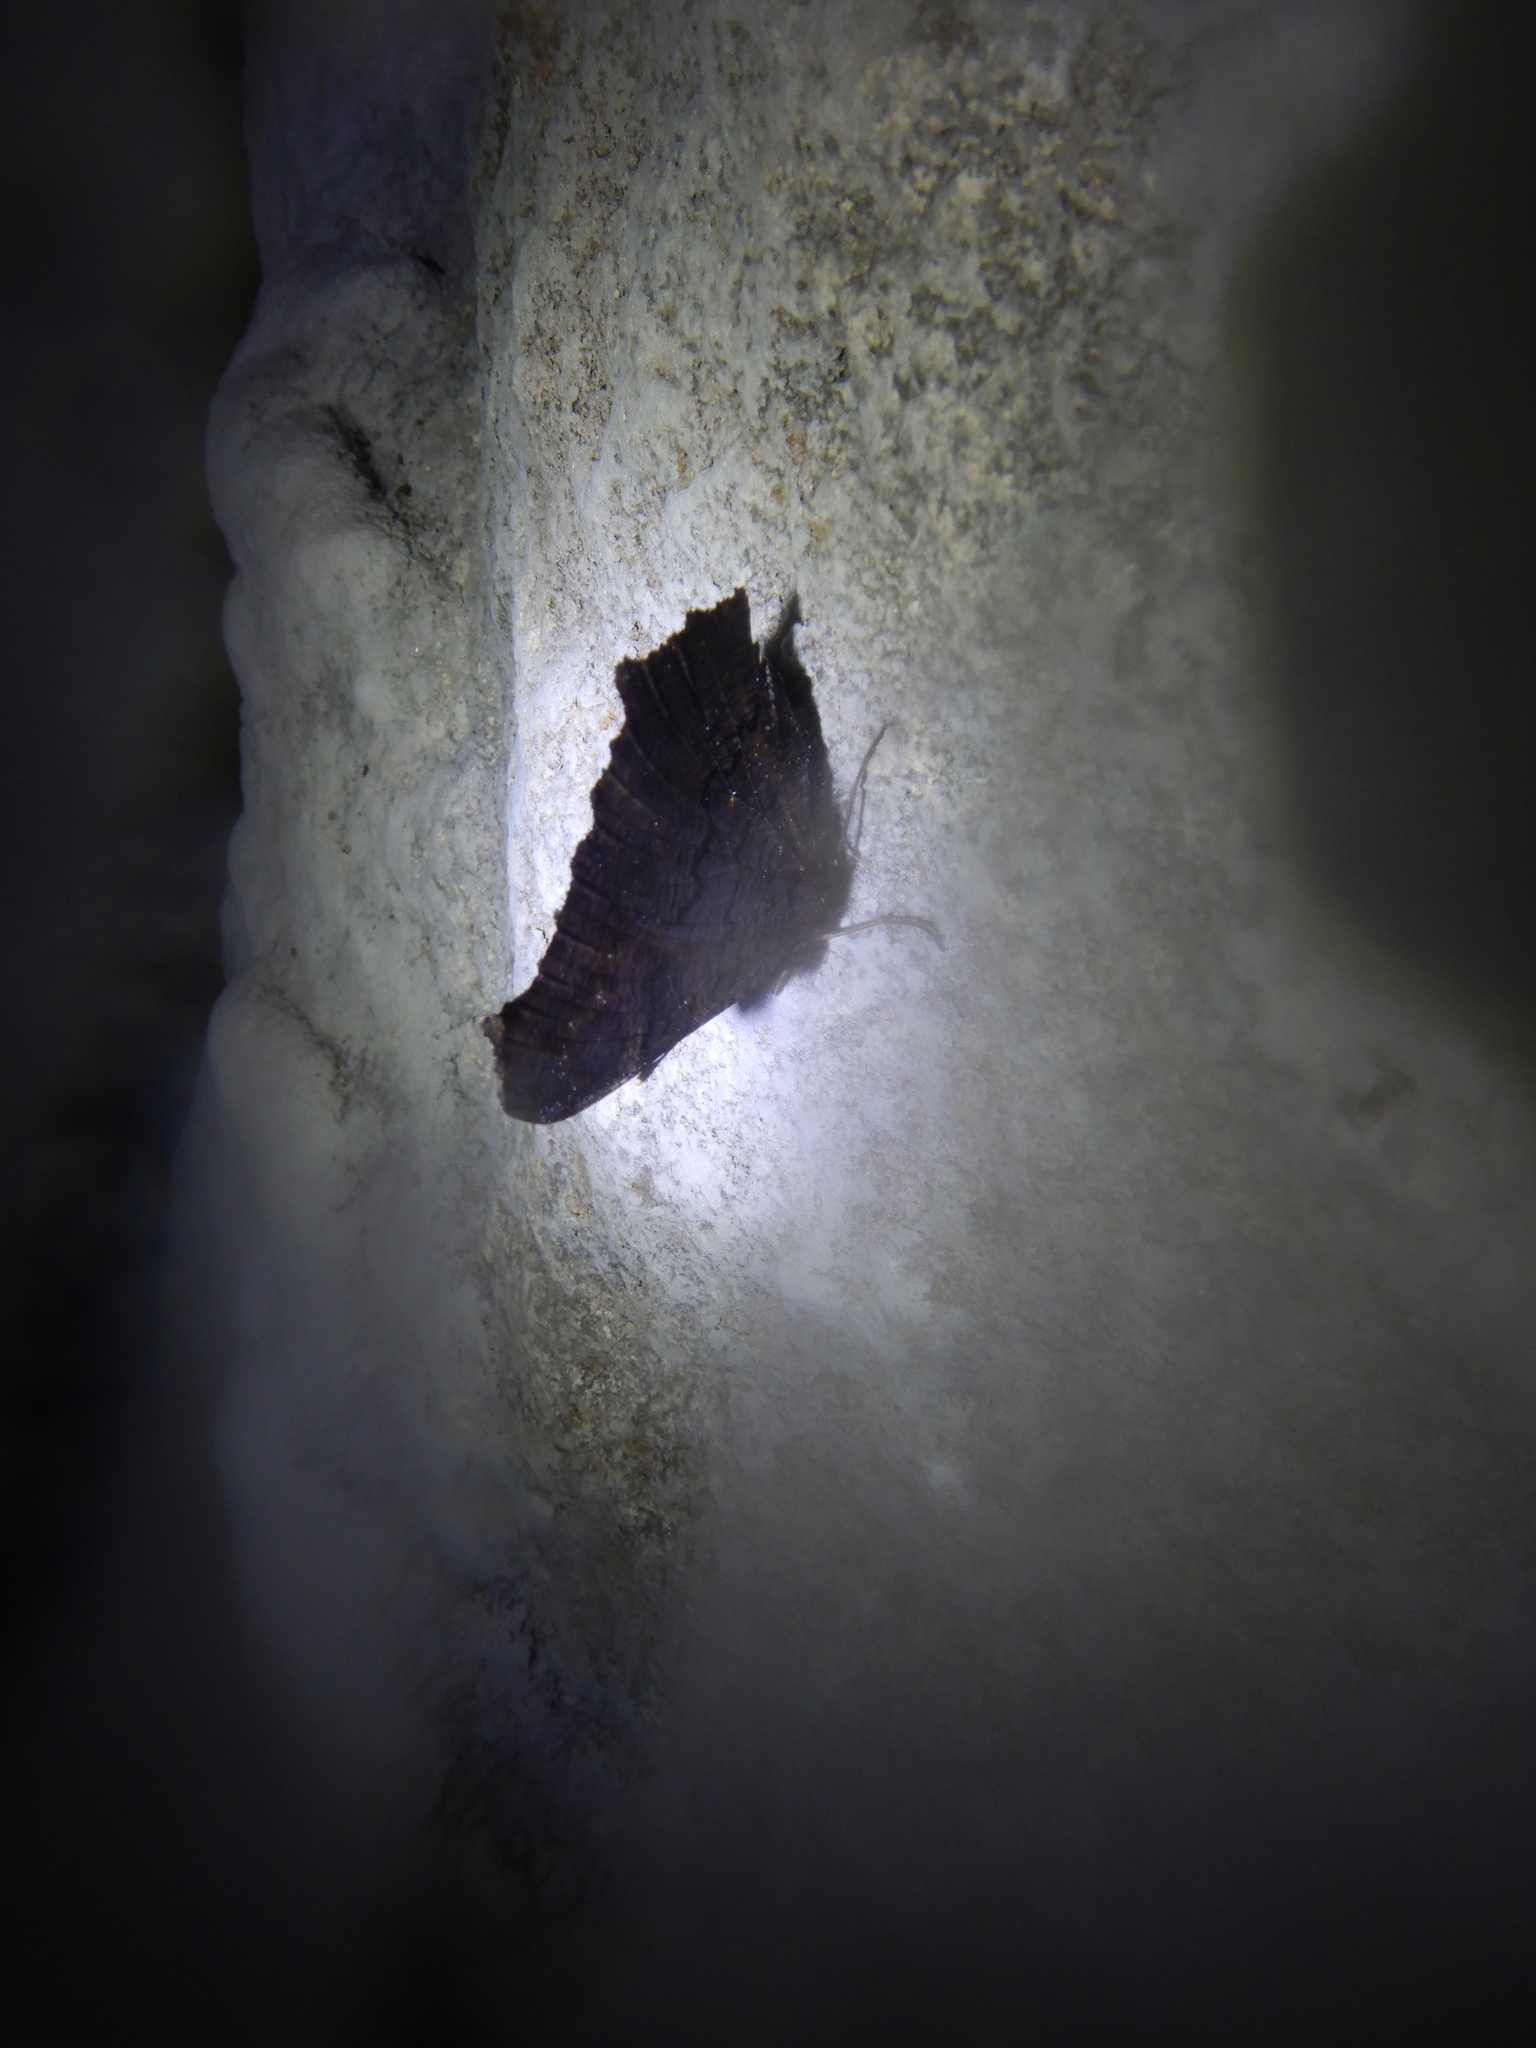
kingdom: Animalia
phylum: Arthropoda
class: Insecta
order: Lepidoptera
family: Nymphalidae
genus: Aglais
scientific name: Aglais io
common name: Peacock
